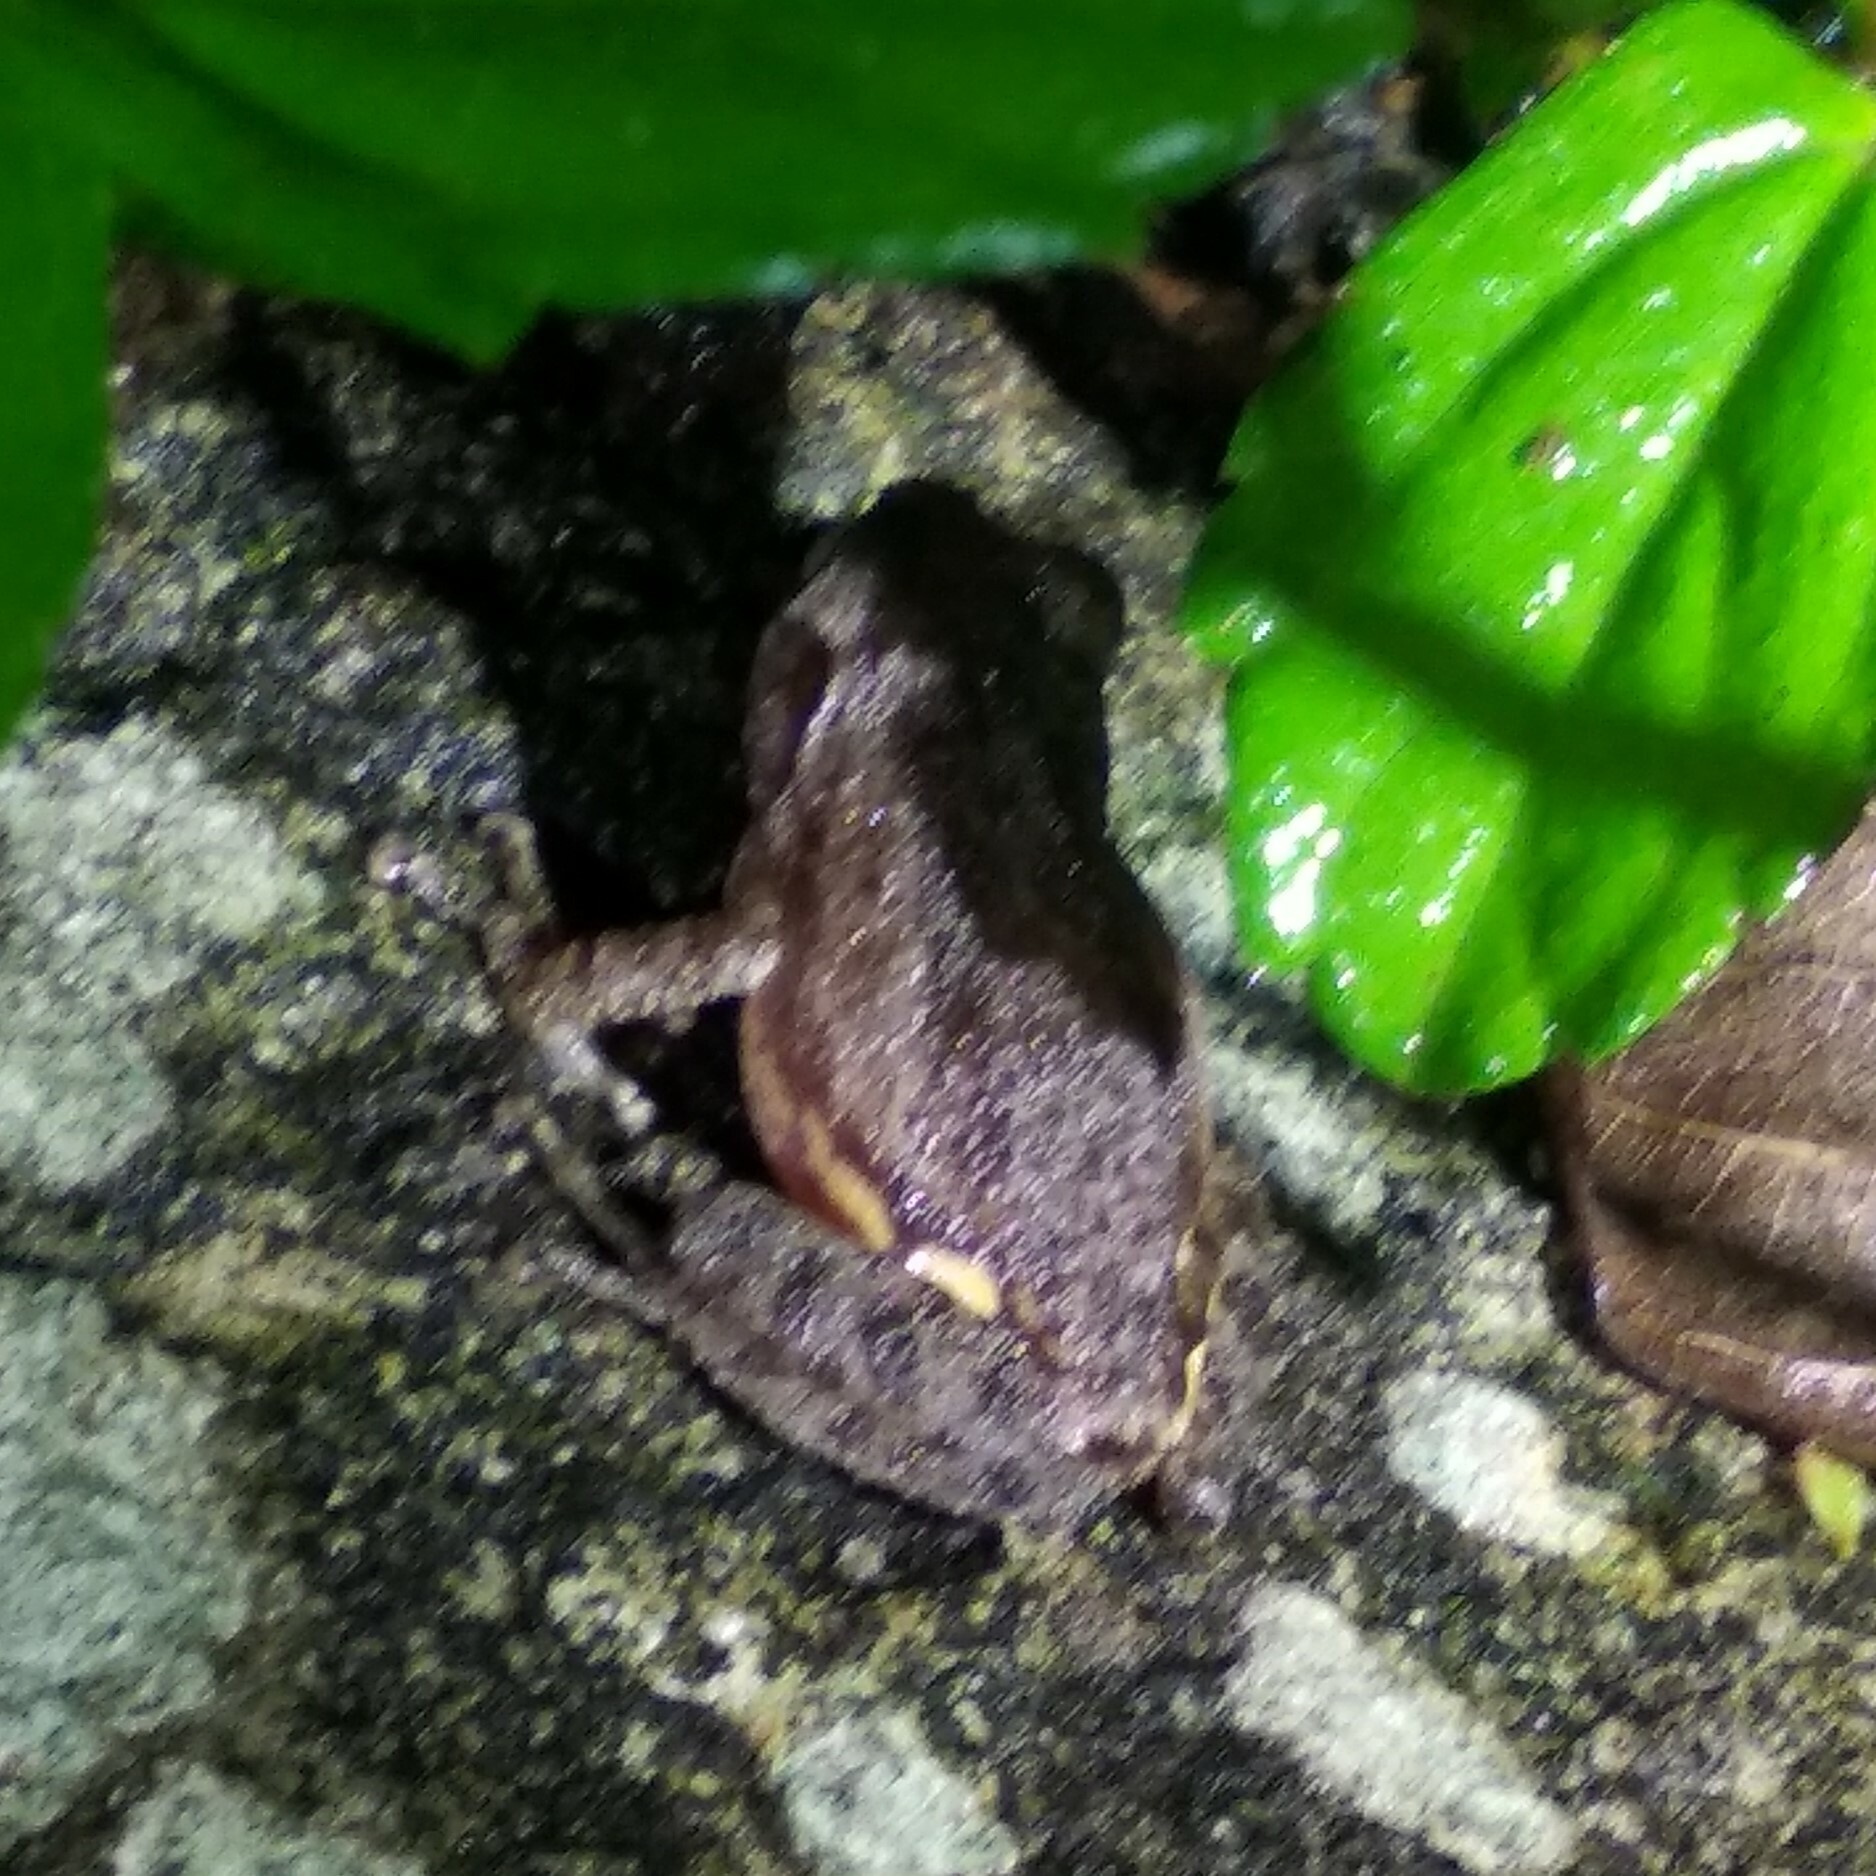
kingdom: Animalia
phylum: Chordata
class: Amphibia
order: Anura
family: Rhacophoridae
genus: Raorchestes
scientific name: Raorchestes tuberohumerus
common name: Kudremukh bush frog
